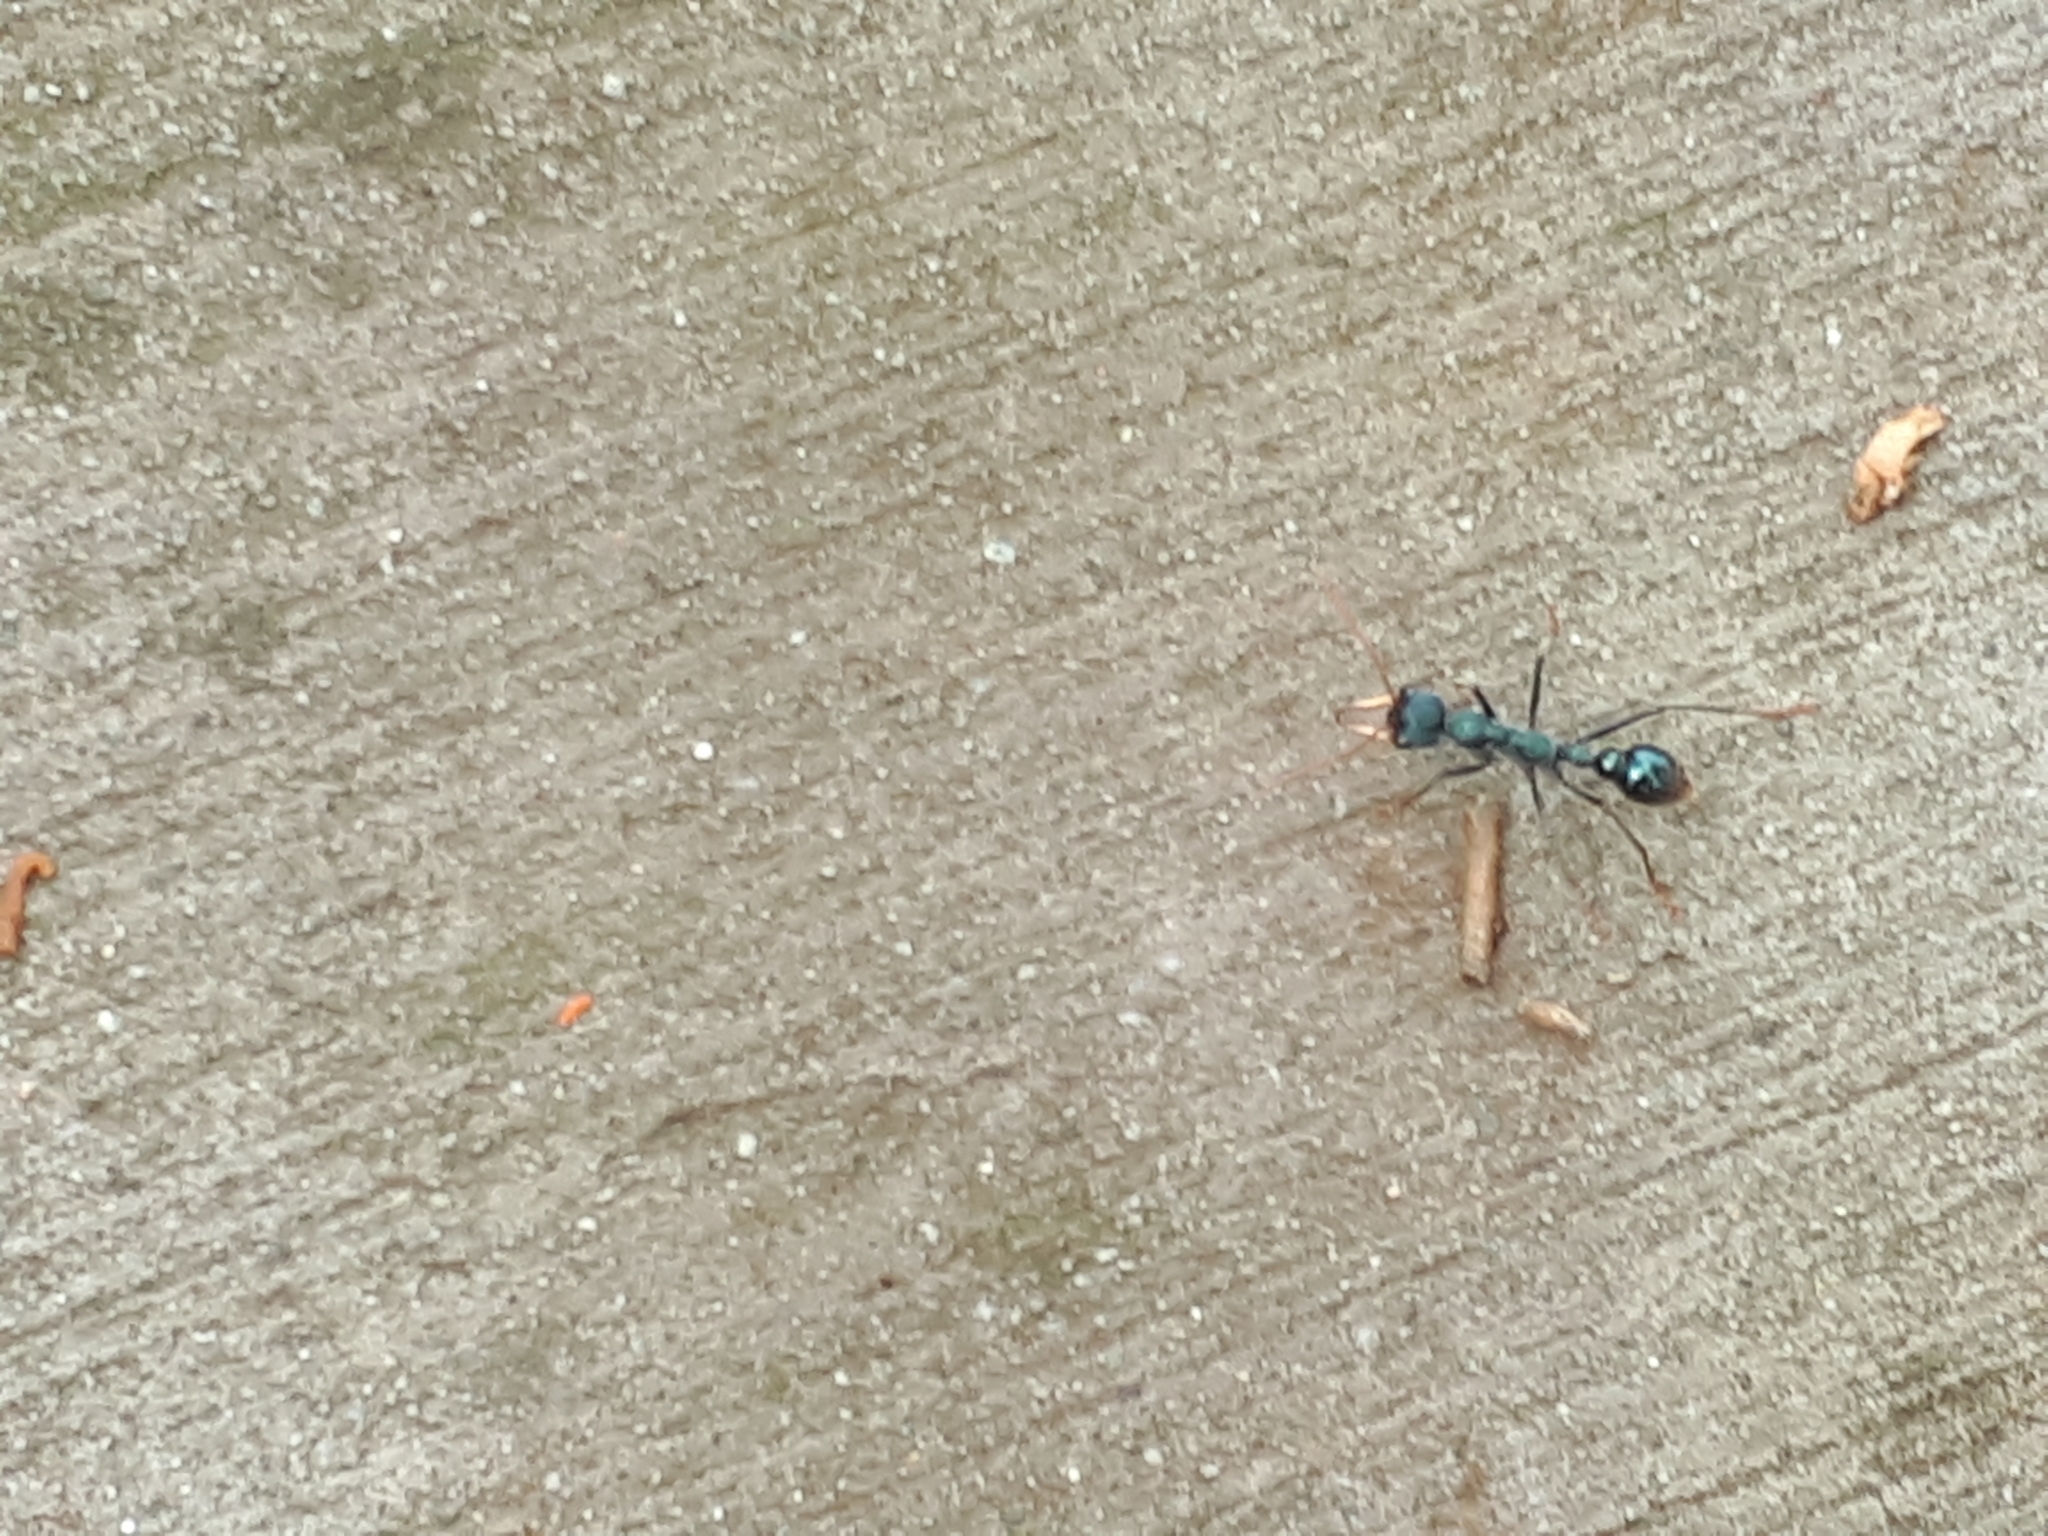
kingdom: Animalia
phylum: Arthropoda
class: Insecta
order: Hymenoptera
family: Formicidae
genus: Myrmecia
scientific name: Myrmecia tarsata
